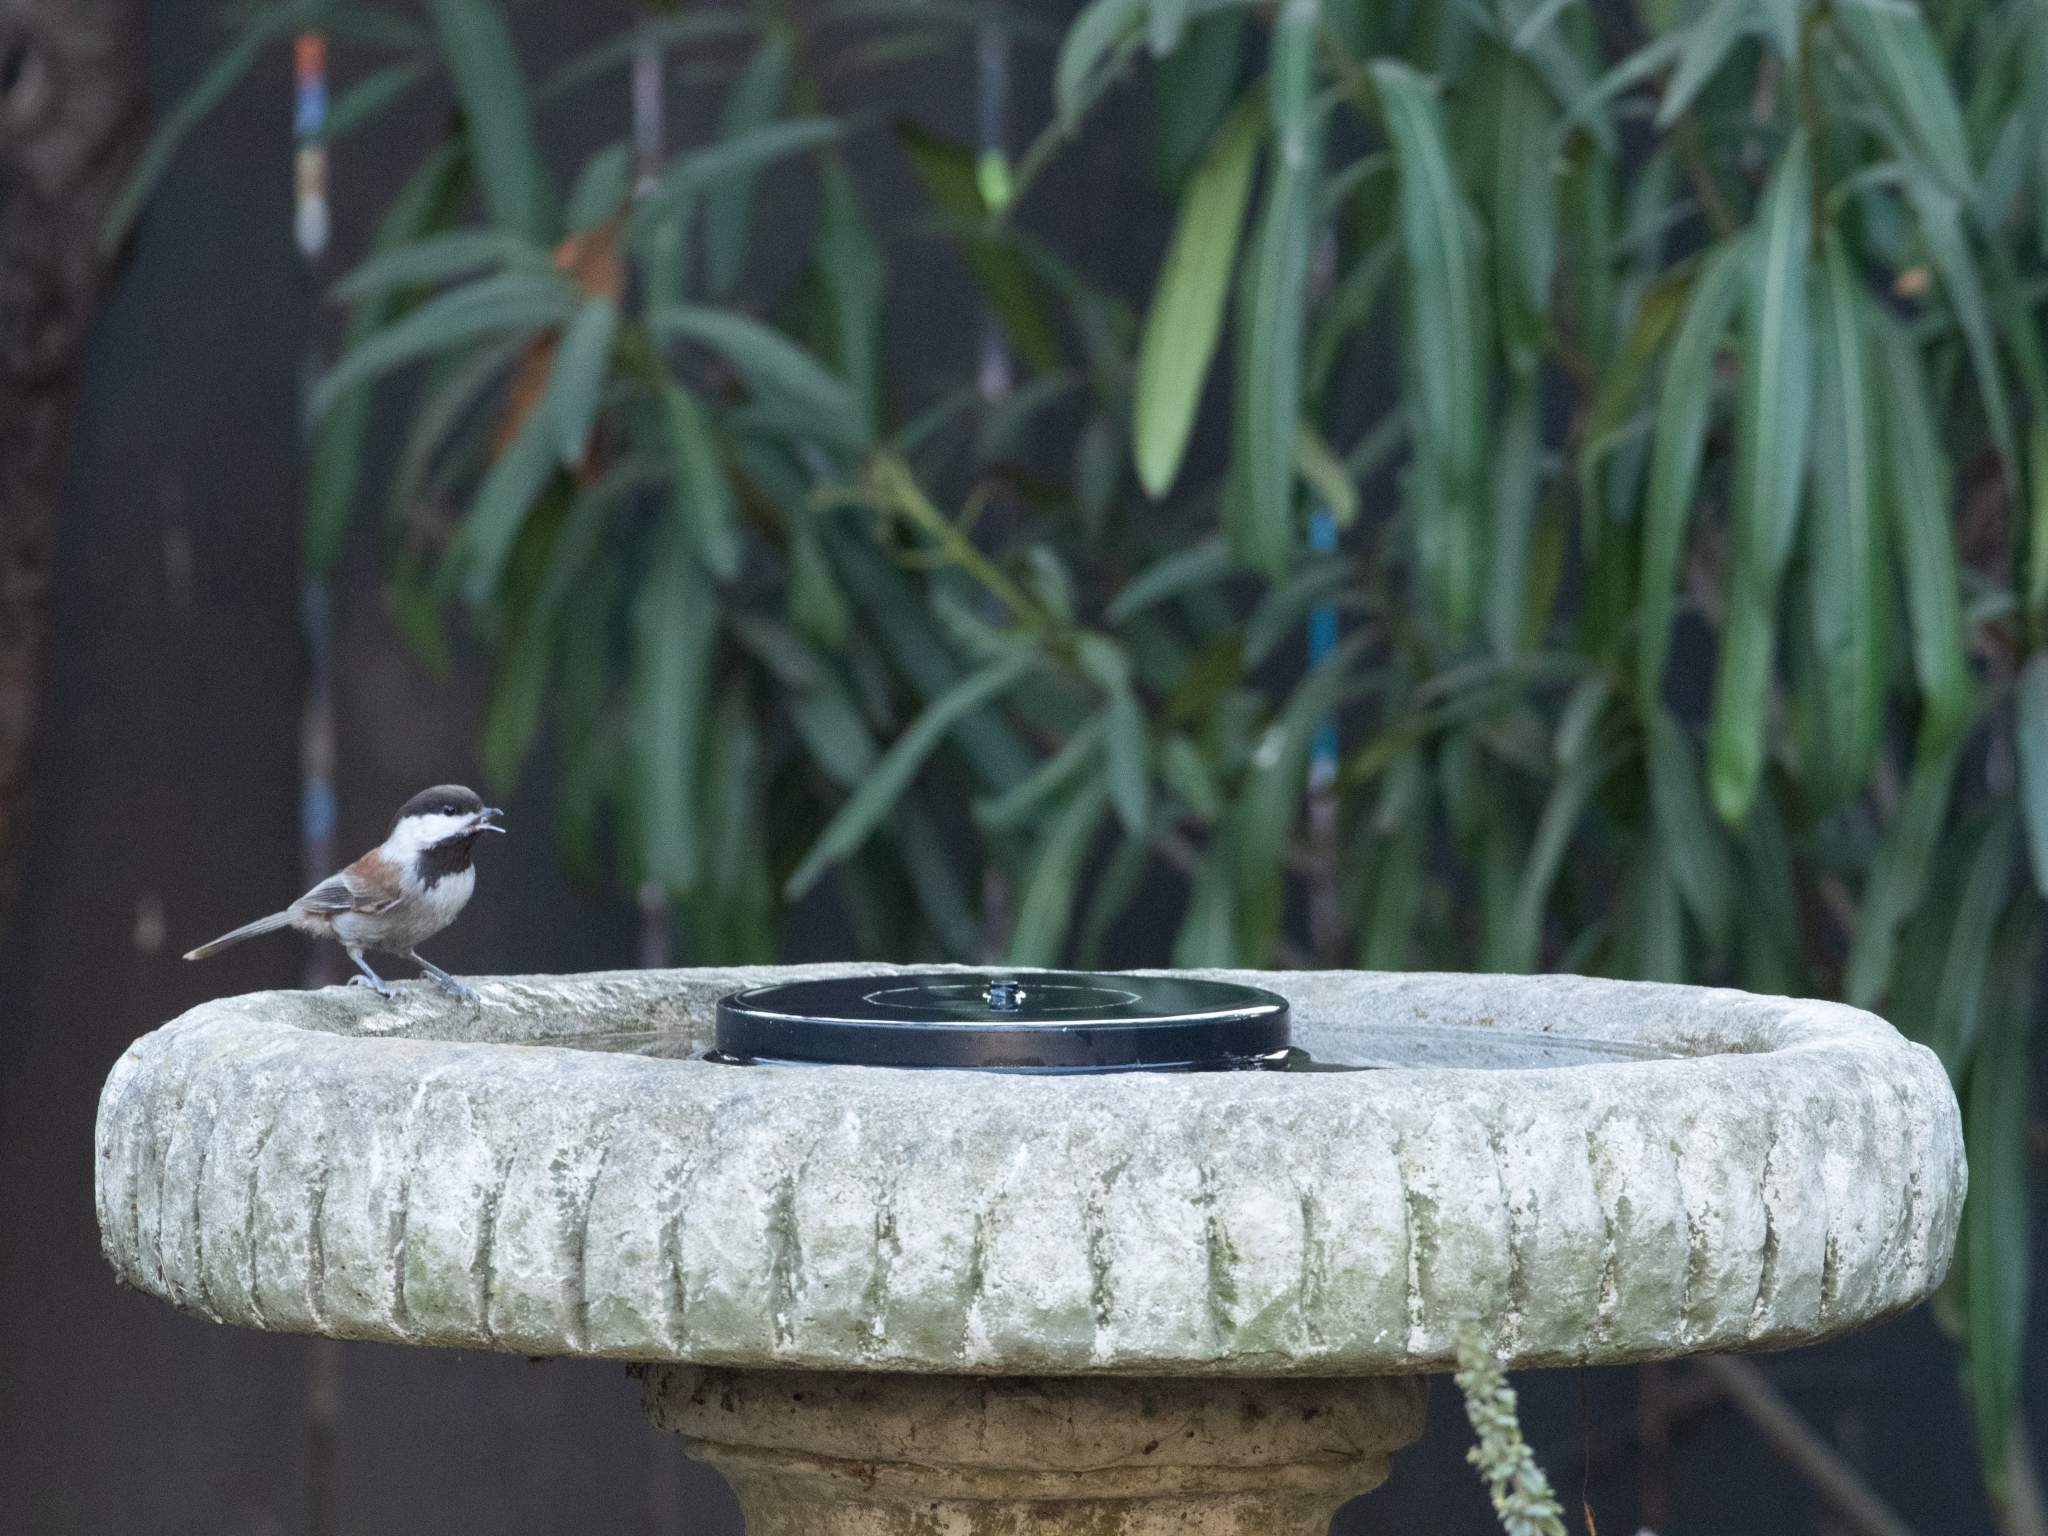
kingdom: Animalia
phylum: Chordata
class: Aves
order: Passeriformes
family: Paridae
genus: Poecile
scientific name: Poecile rufescens
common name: Chestnut-backed chickadee
